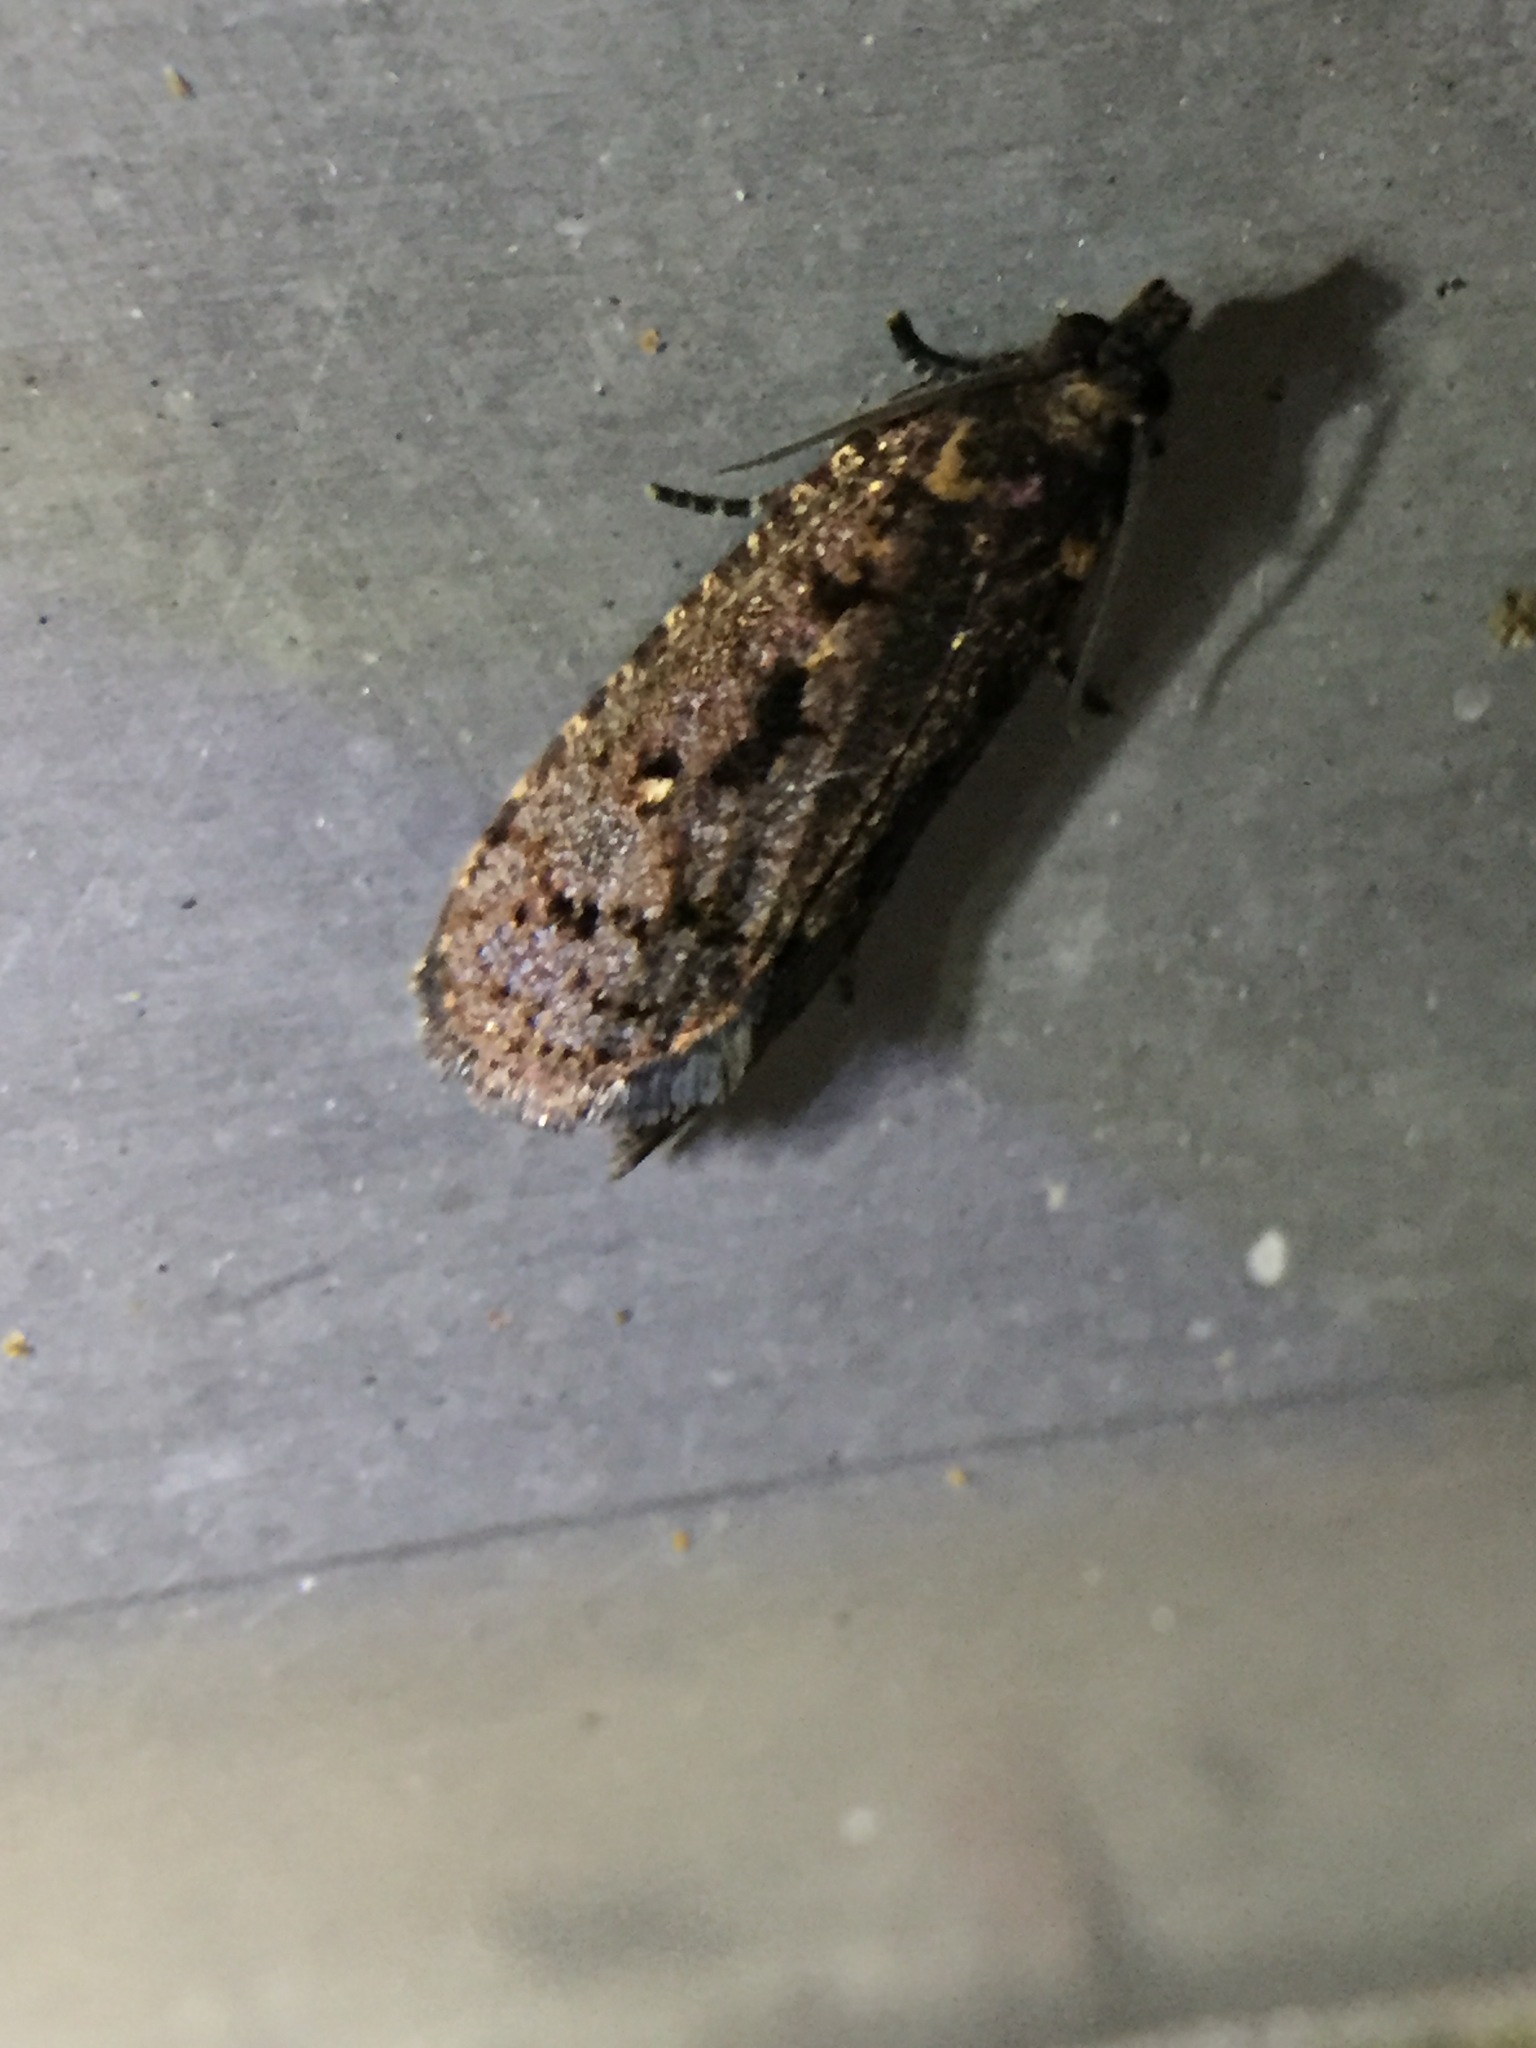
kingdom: Animalia
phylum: Arthropoda
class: Insecta
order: Lepidoptera
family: Tortricidae
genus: Cryptaspasma
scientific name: Cryptaspasma querula
